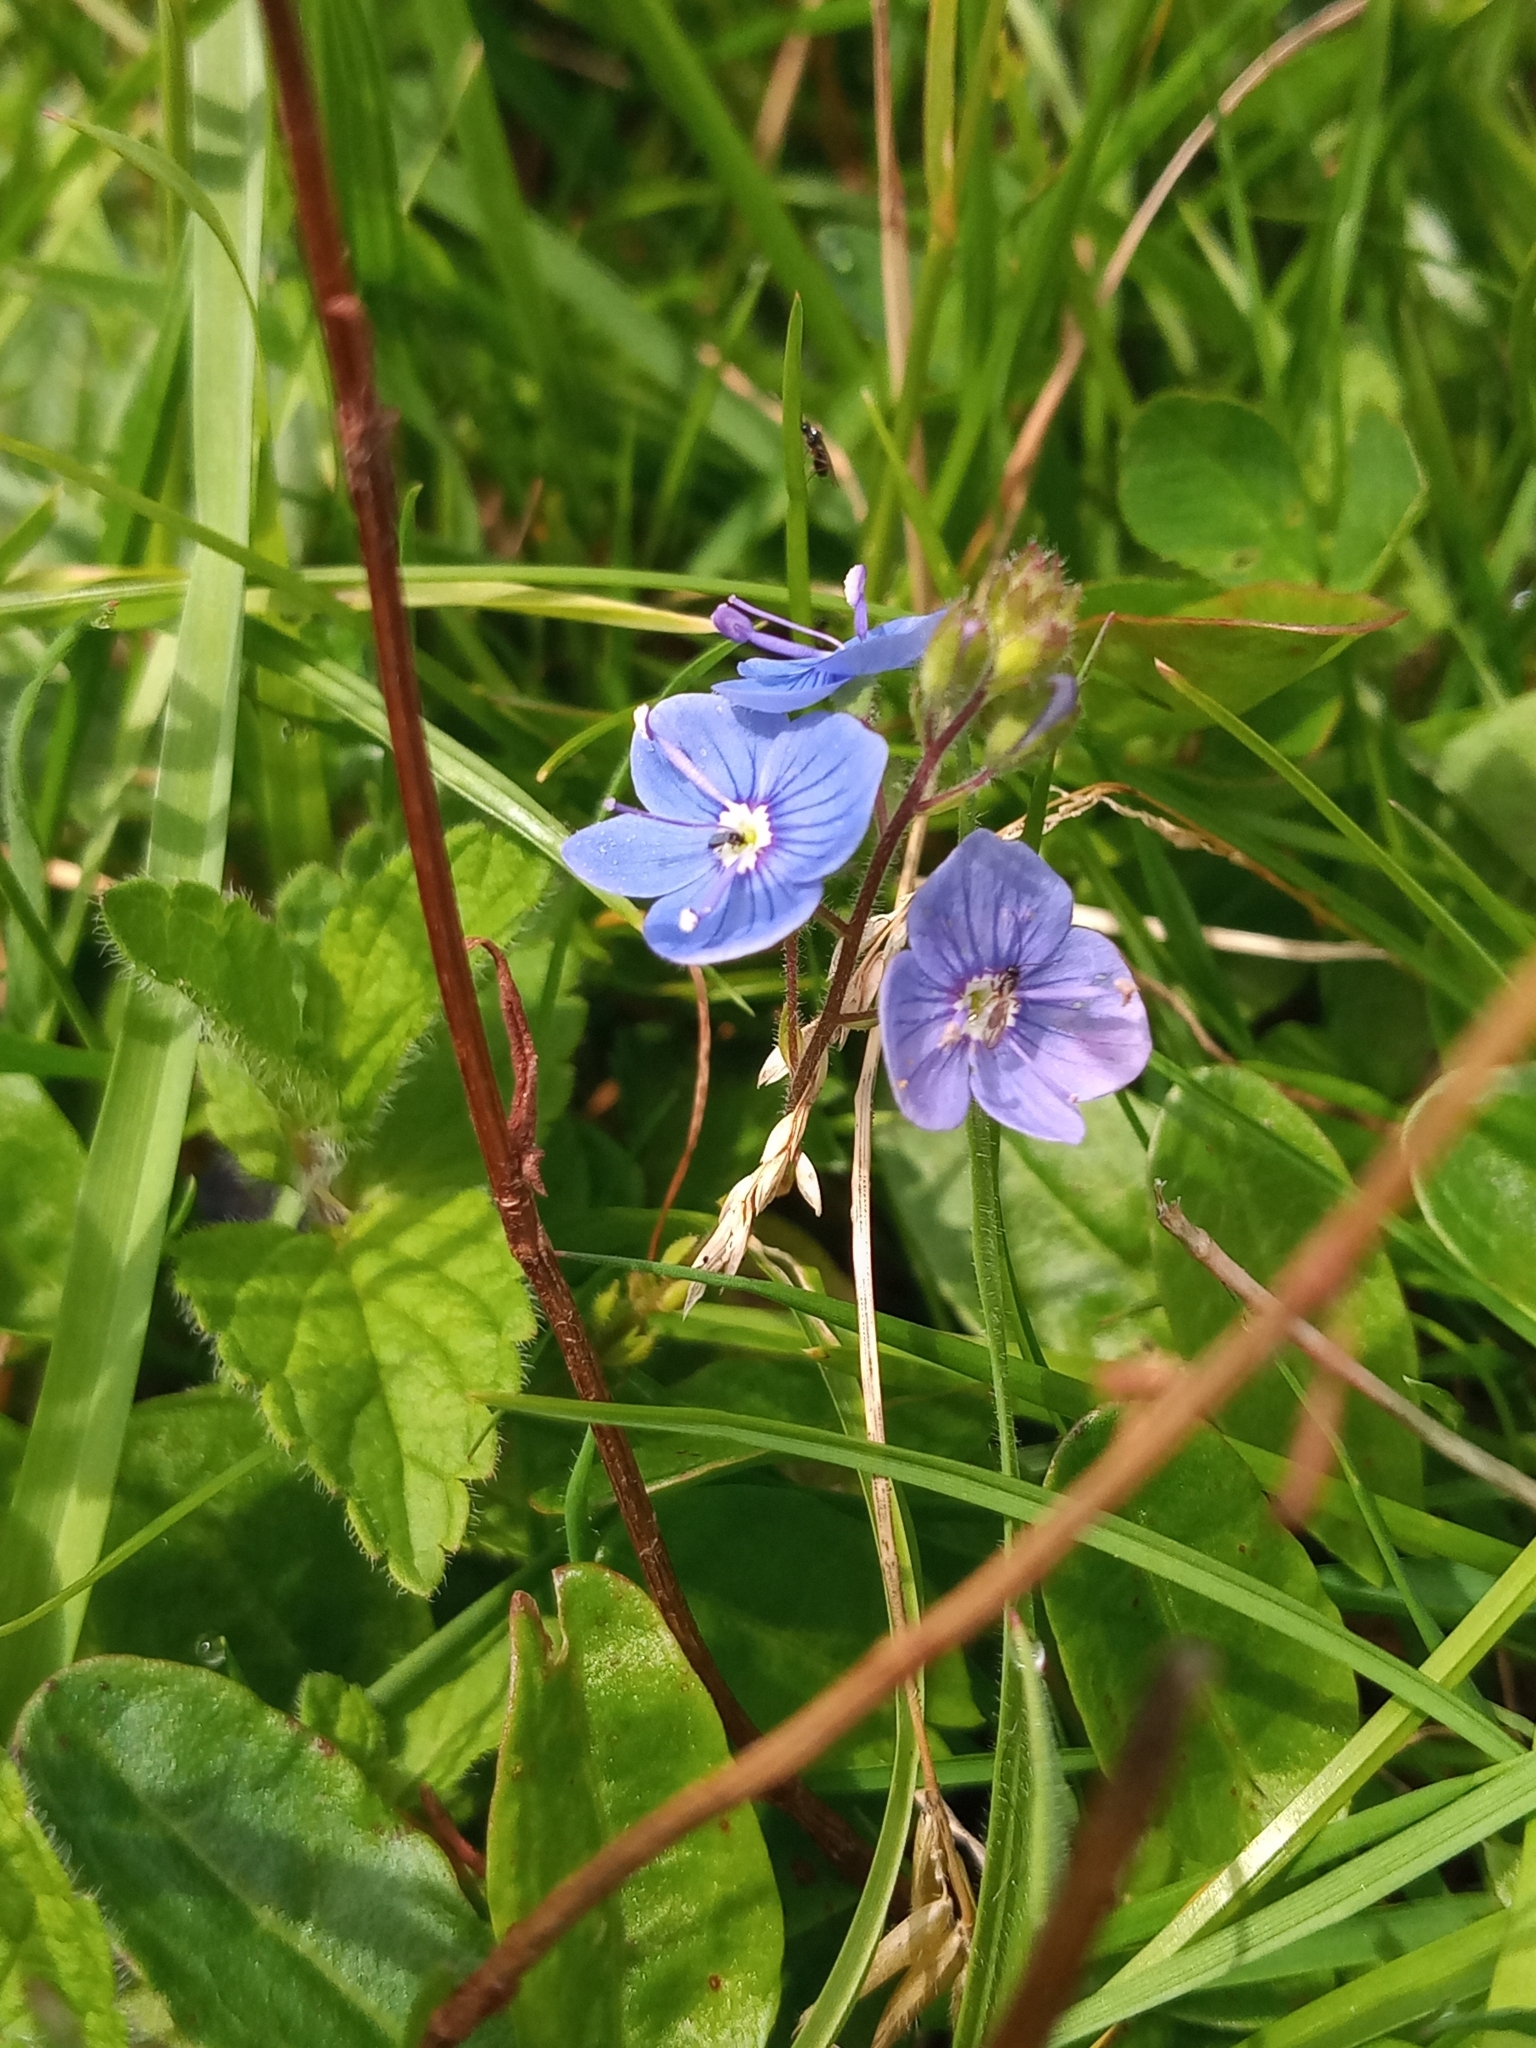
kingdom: Plantae
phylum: Tracheophyta
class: Magnoliopsida
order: Lamiales
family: Plantaginaceae
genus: Veronica
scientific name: Veronica chamaedrys
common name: Germander speedwell
